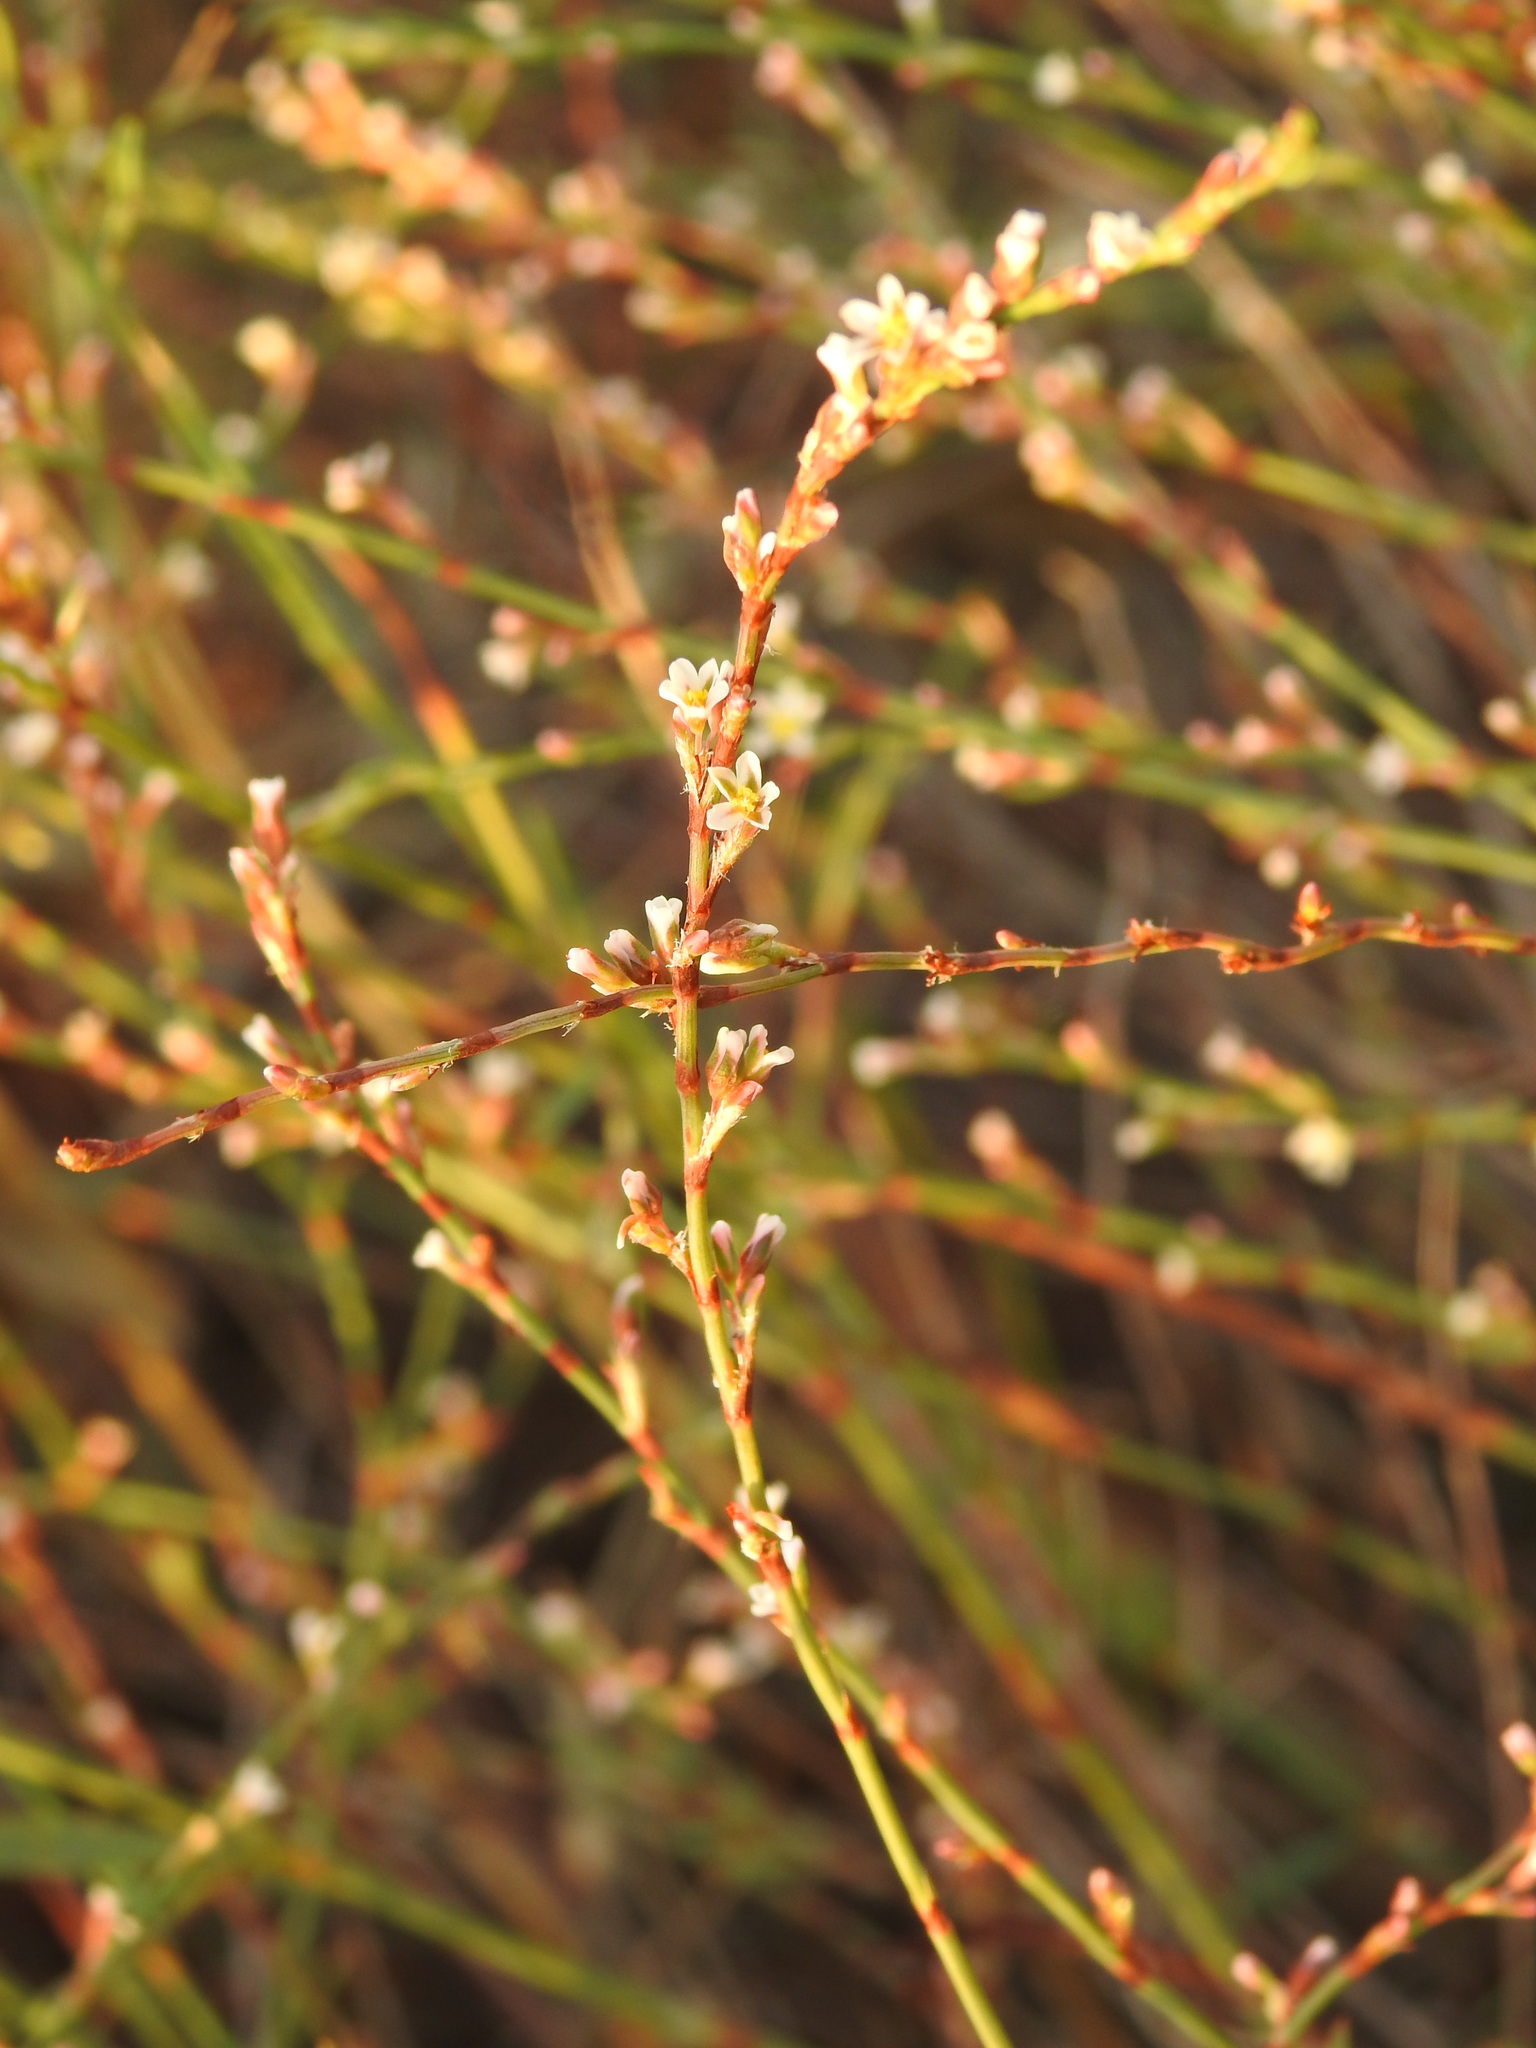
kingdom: Plantae
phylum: Tracheophyta
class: Magnoliopsida
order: Caryophyllales
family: Polygonaceae
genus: Polygonum
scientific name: Polygonum equisetiforme
